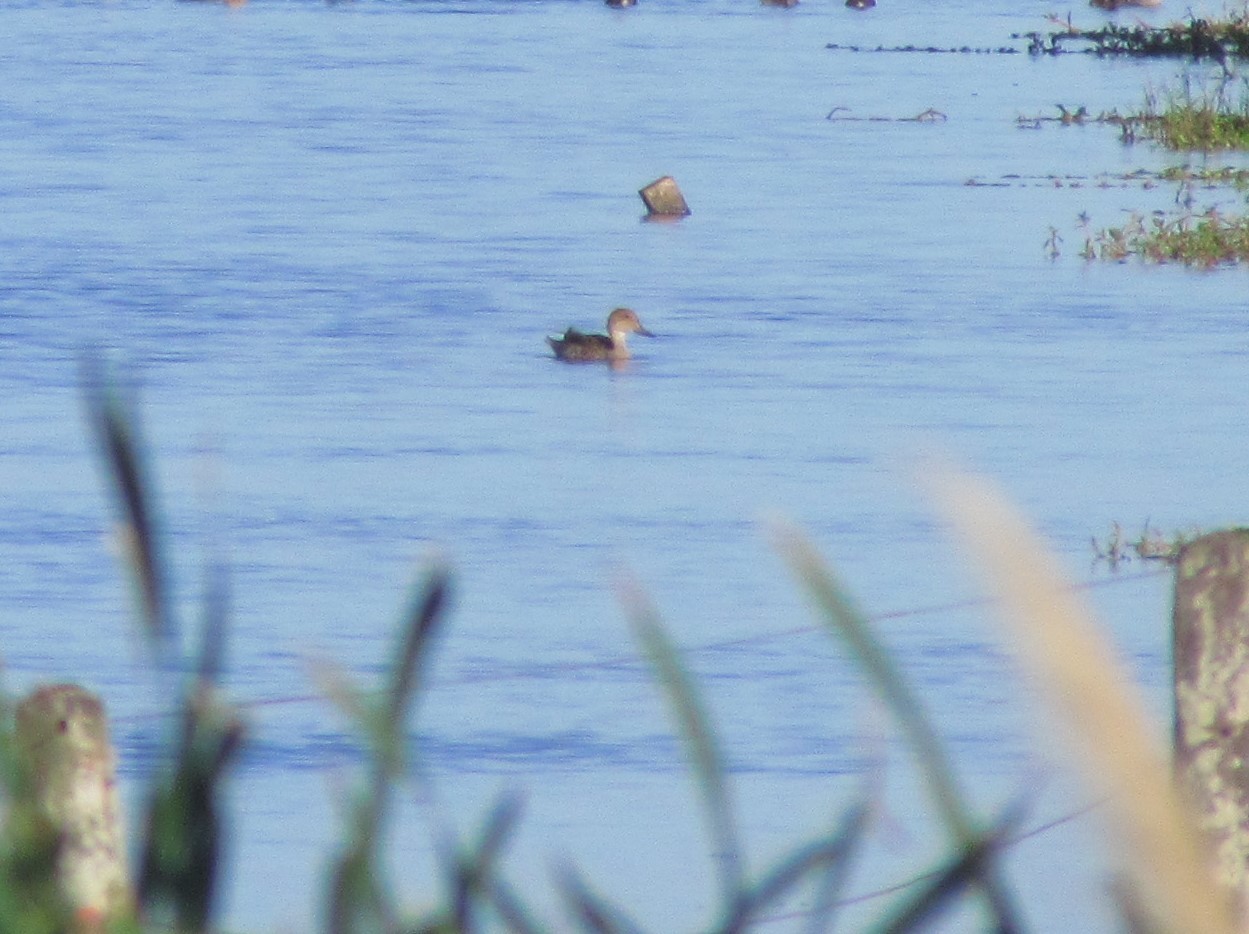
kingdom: Animalia
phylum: Chordata
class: Aves
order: Anseriformes
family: Anatidae
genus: Anas
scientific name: Anas georgica
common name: Yellow-billed pintail
